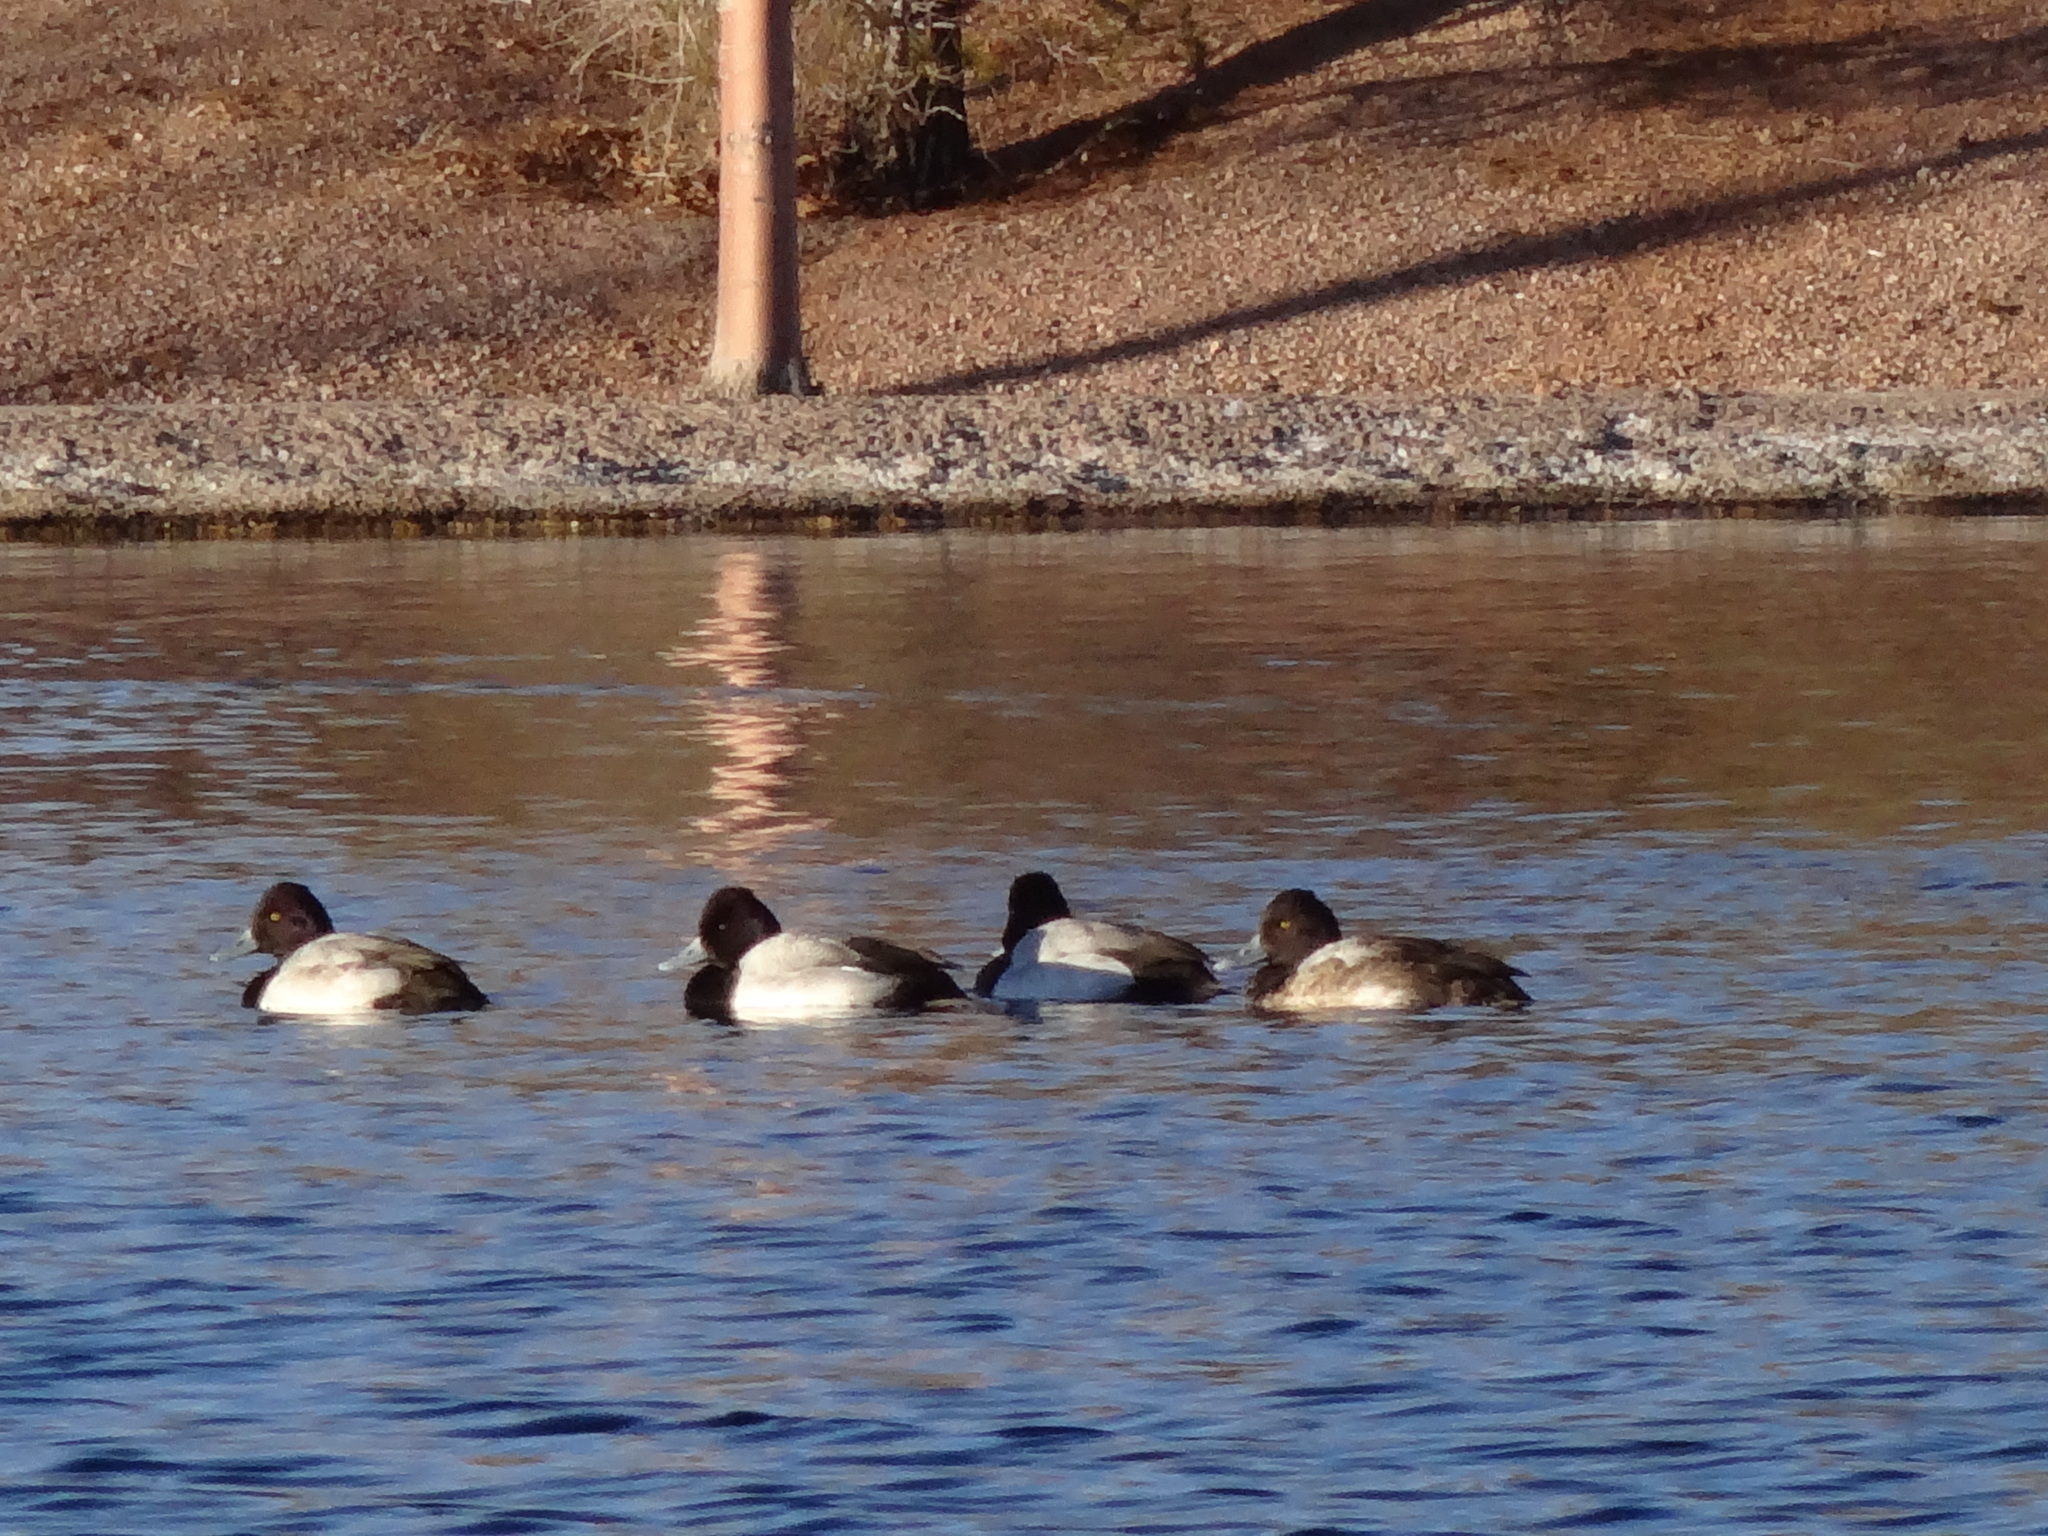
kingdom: Animalia
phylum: Chordata
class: Aves
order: Anseriformes
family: Anatidae
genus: Aythya
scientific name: Aythya collaris
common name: Ring-necked duck
